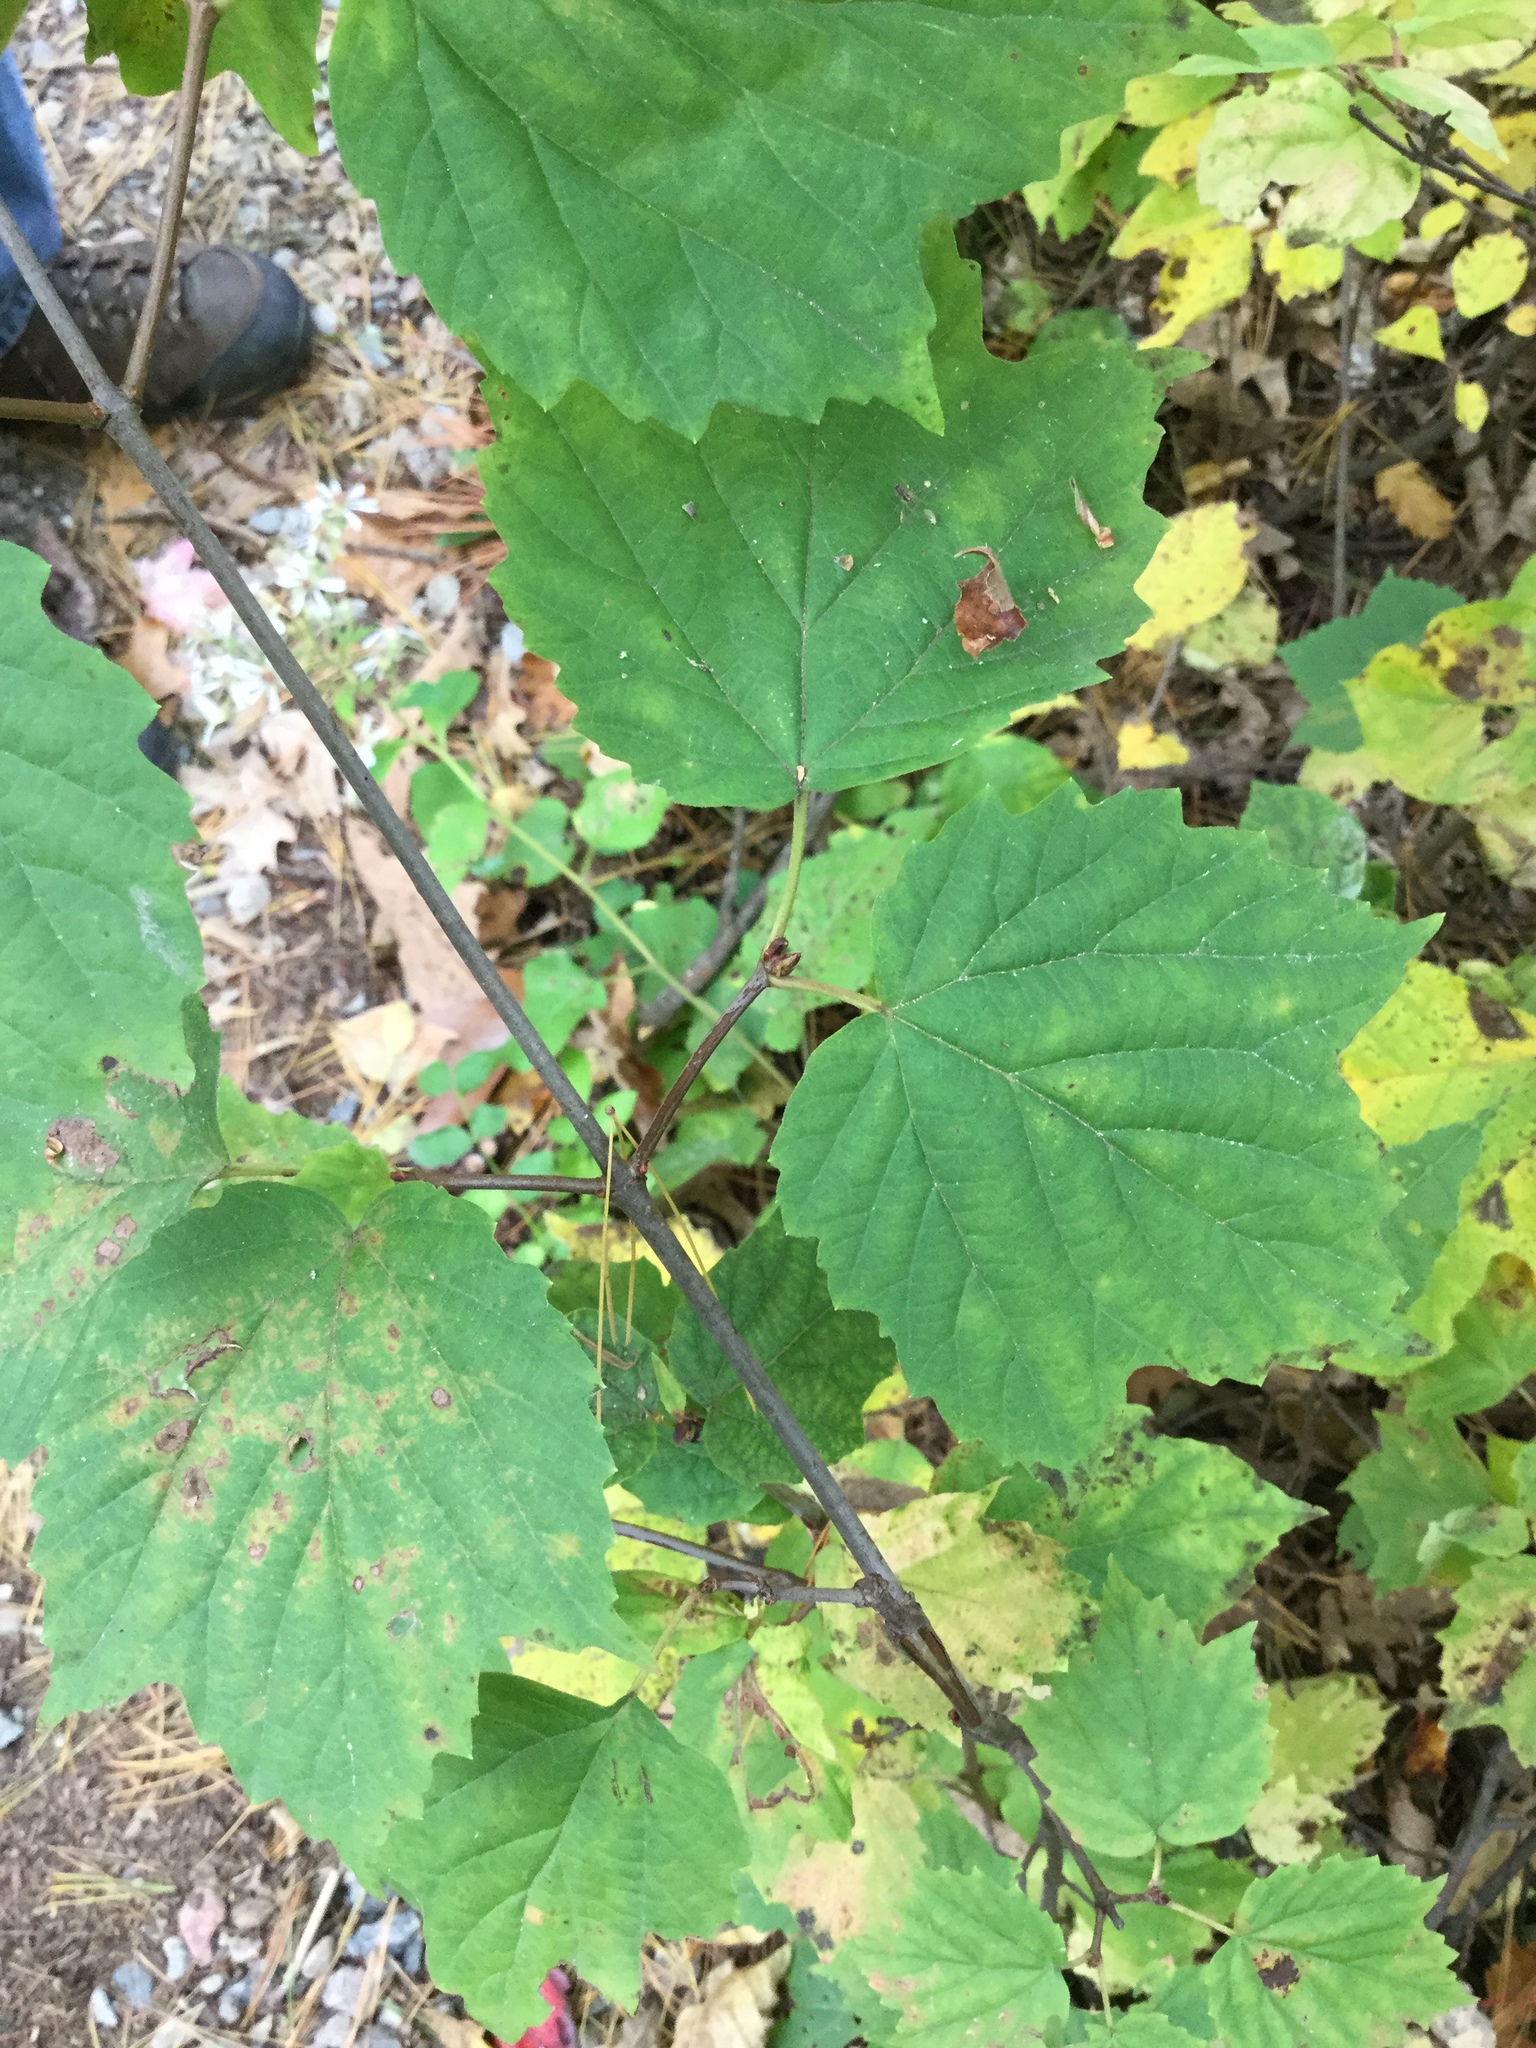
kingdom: Plantae
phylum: Tracheophyta
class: Magnoliopsida
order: Dipsacales
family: Viburnaceae
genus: Viburnum
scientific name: Viburnum acerifolium
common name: Dockmackie
